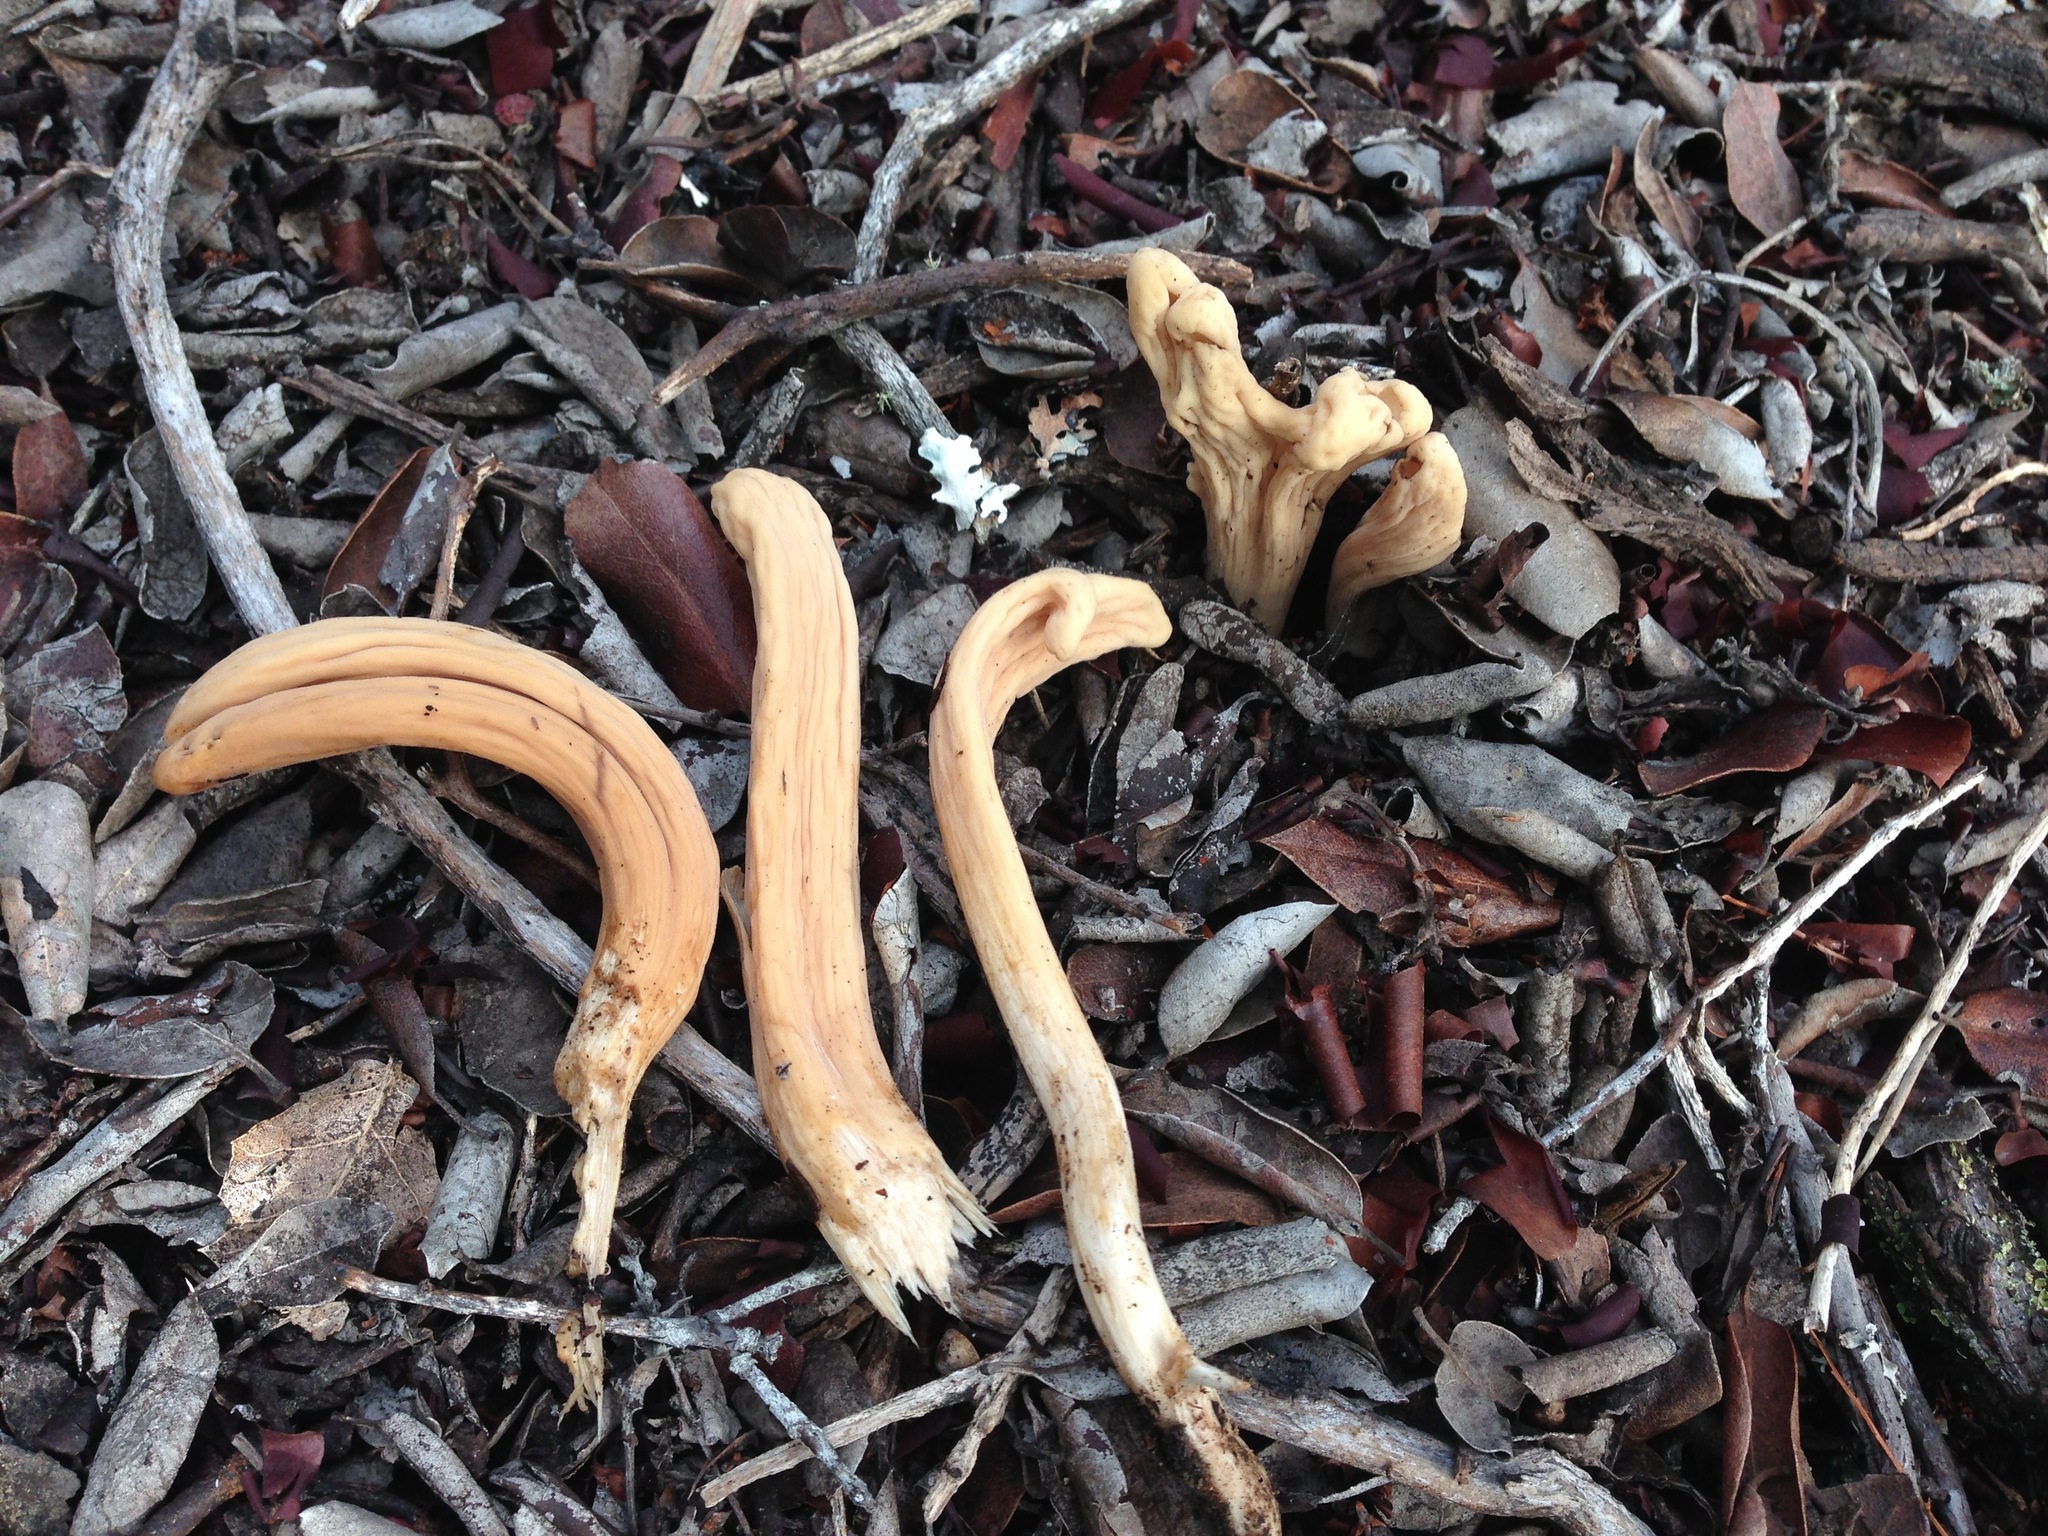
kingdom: Fungi
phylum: Basidiomycota
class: Agaricomycetes
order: Gomphales
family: Clavariadelphaceae
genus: Clavariadelphus
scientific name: Clavariadelphus occidentalis
